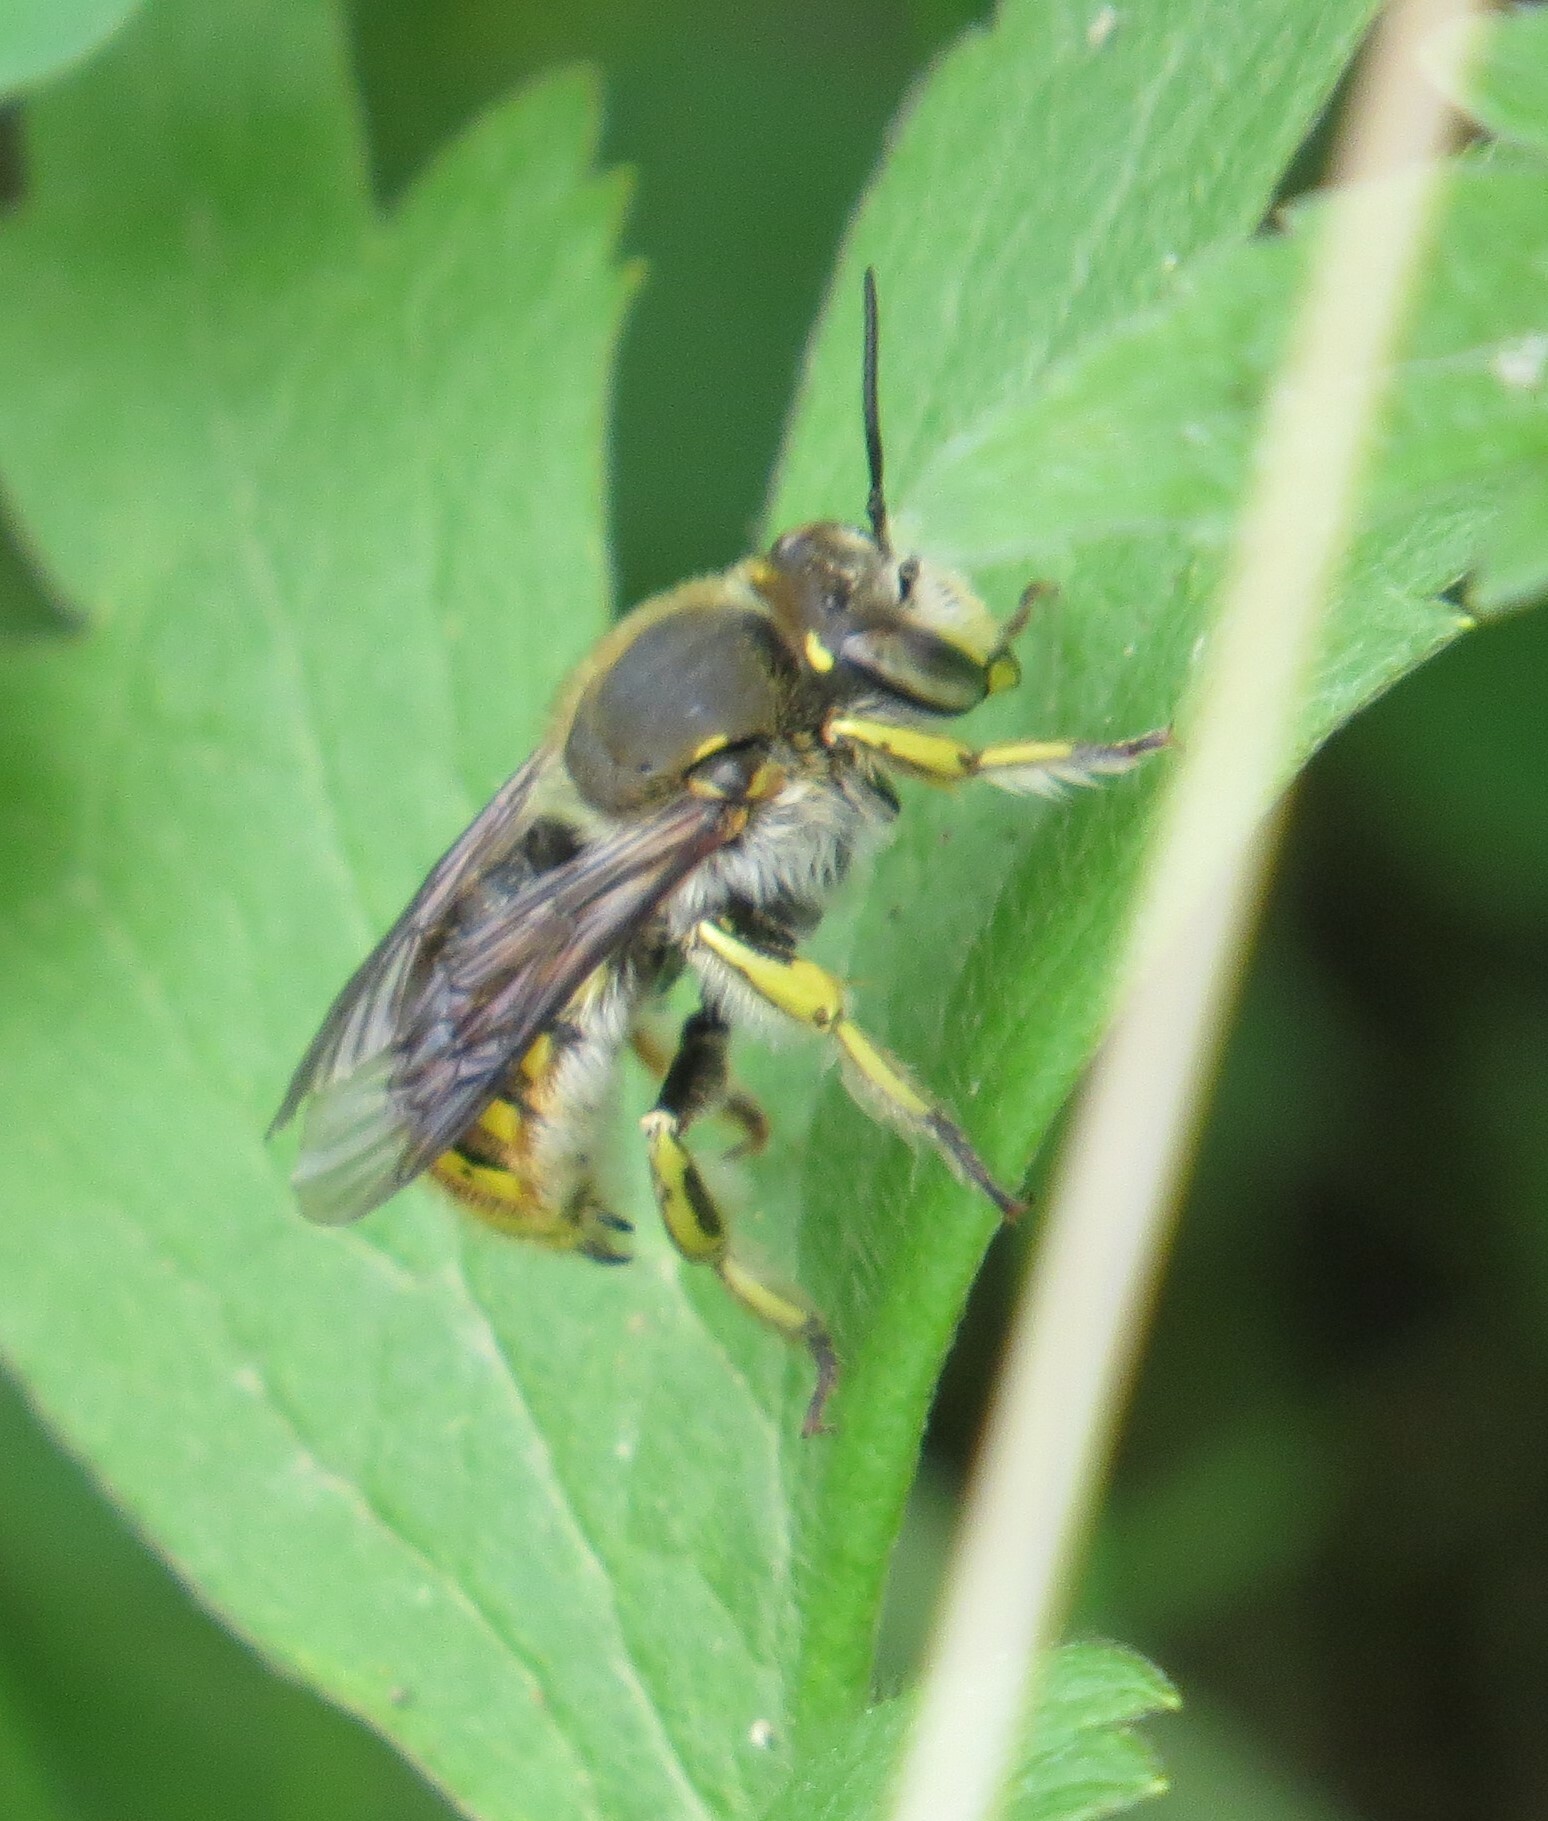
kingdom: Animalia
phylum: Arthropoda
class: Insecta
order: Hymenoptera
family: Megachilidae
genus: Anthidium
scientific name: Anthidium manicatum
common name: Wool carder bee
